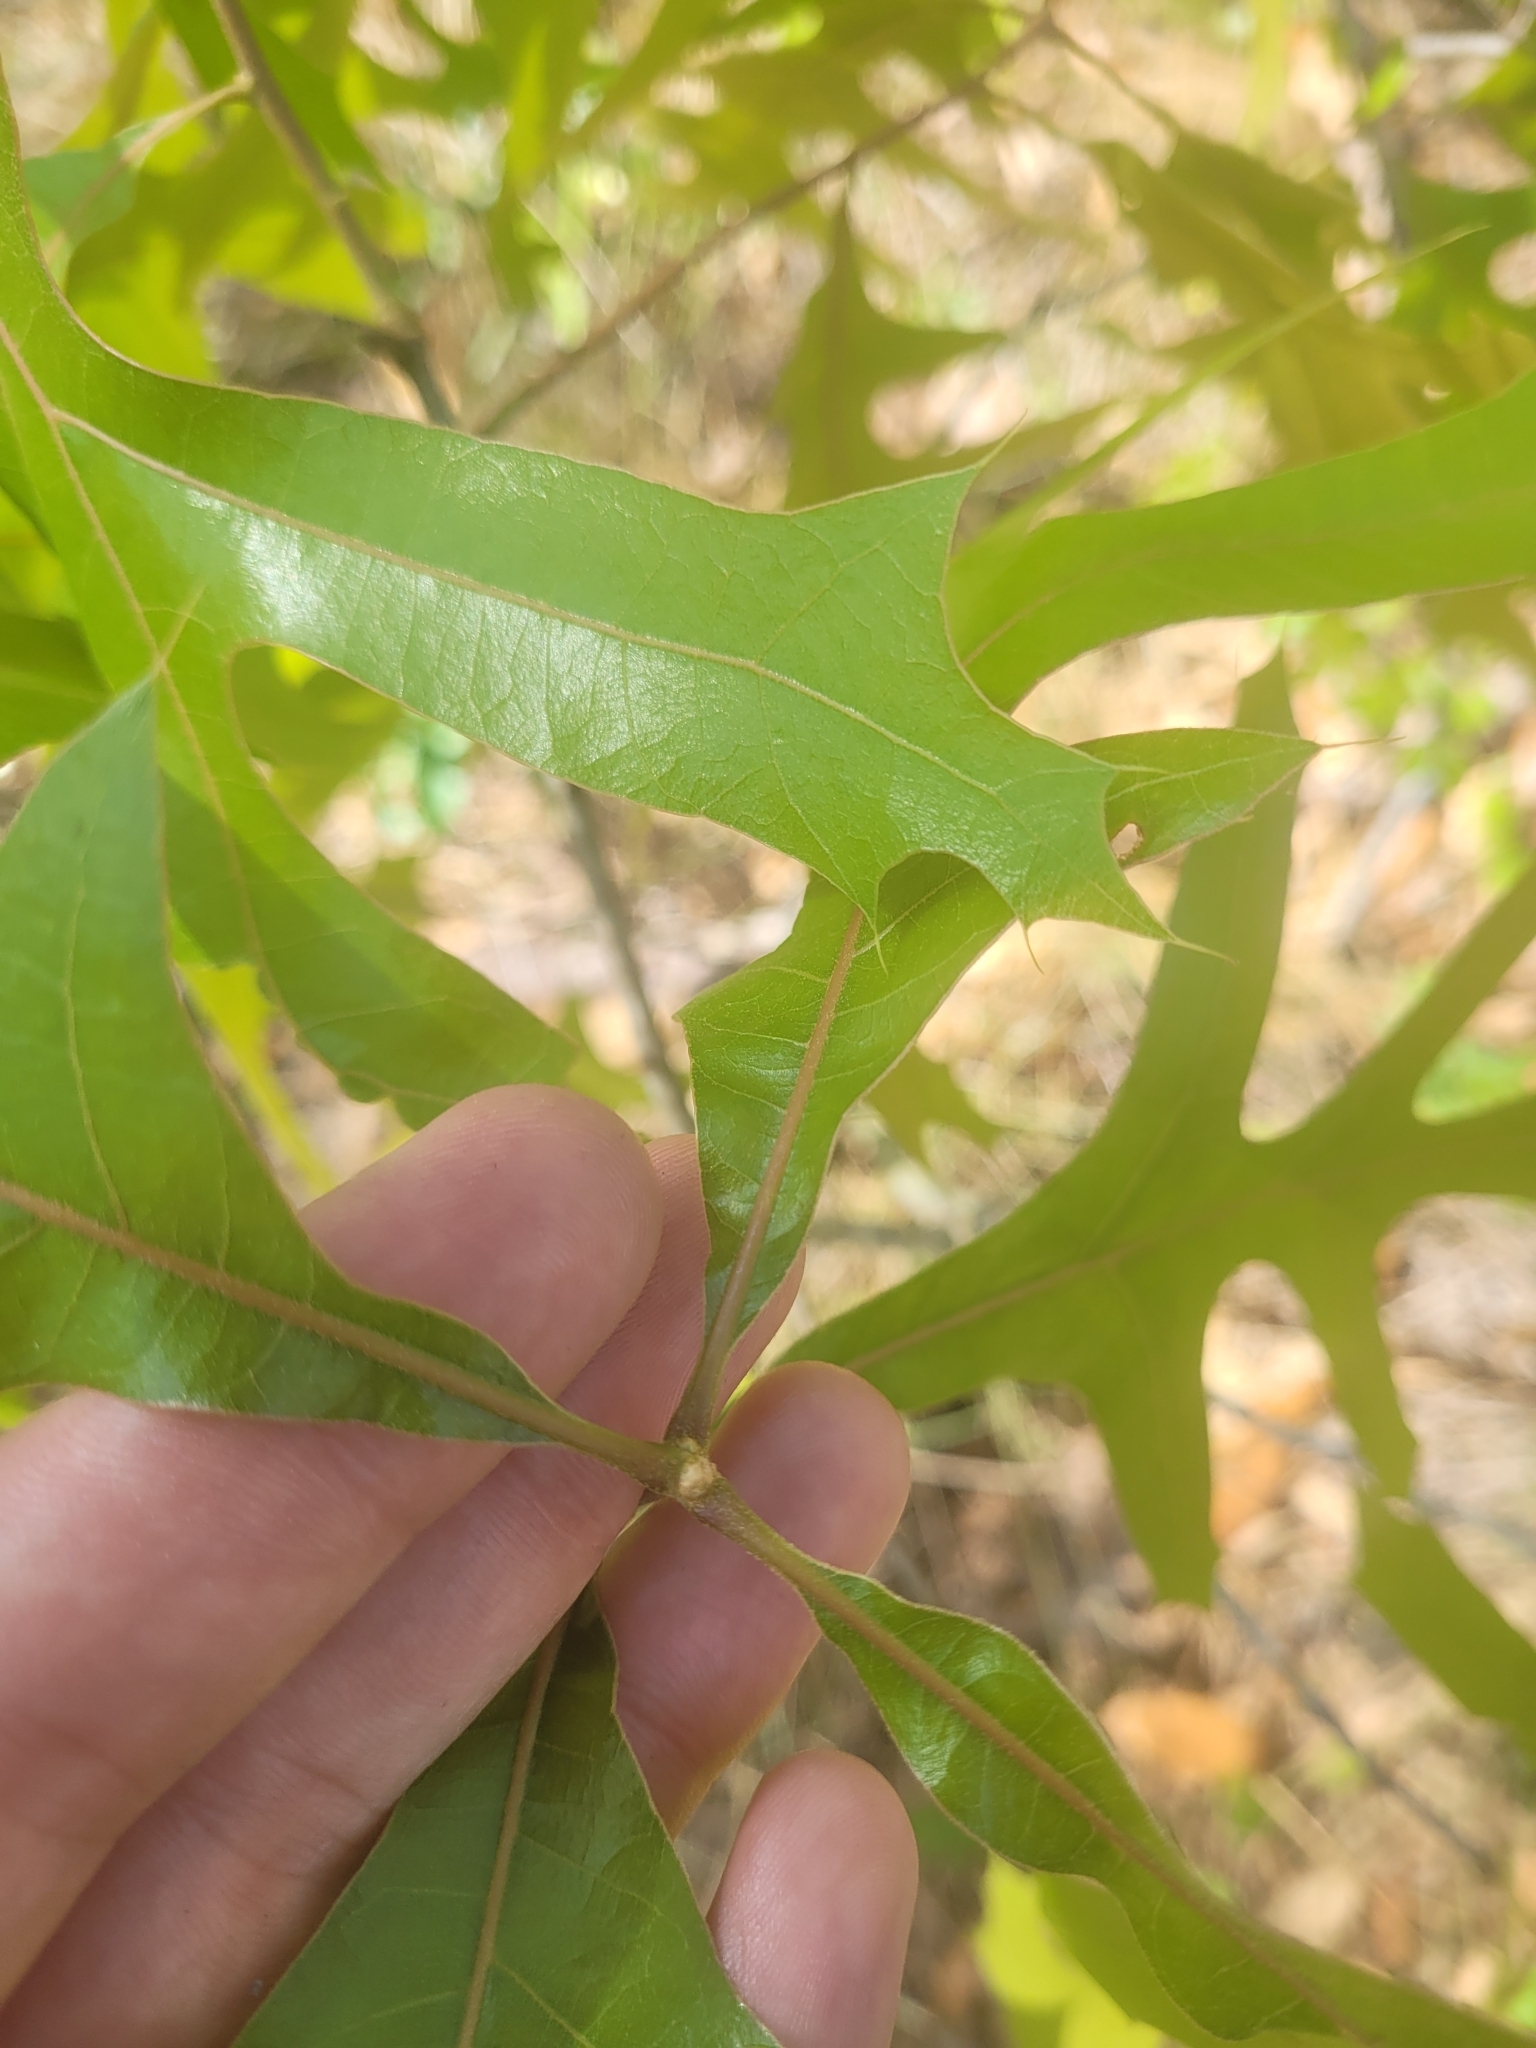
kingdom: Plantae
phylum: Tracheophyta
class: Magnoliopsida
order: Fagales
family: Fagaceae
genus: Quercus
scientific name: Quercus laevis
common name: Turkey oak
